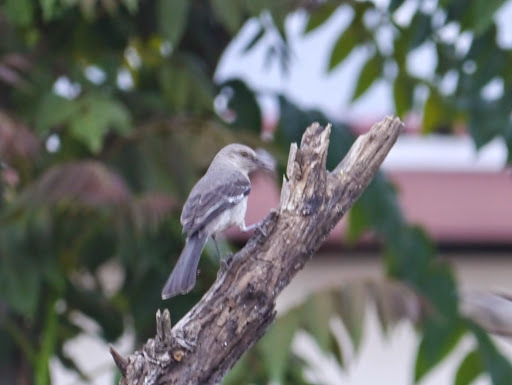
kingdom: Animalia
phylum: Chordata
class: Aves
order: Passeriformes
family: Mimidae
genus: Mimus
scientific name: Mimus polyglottos
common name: Northern mockingbird
